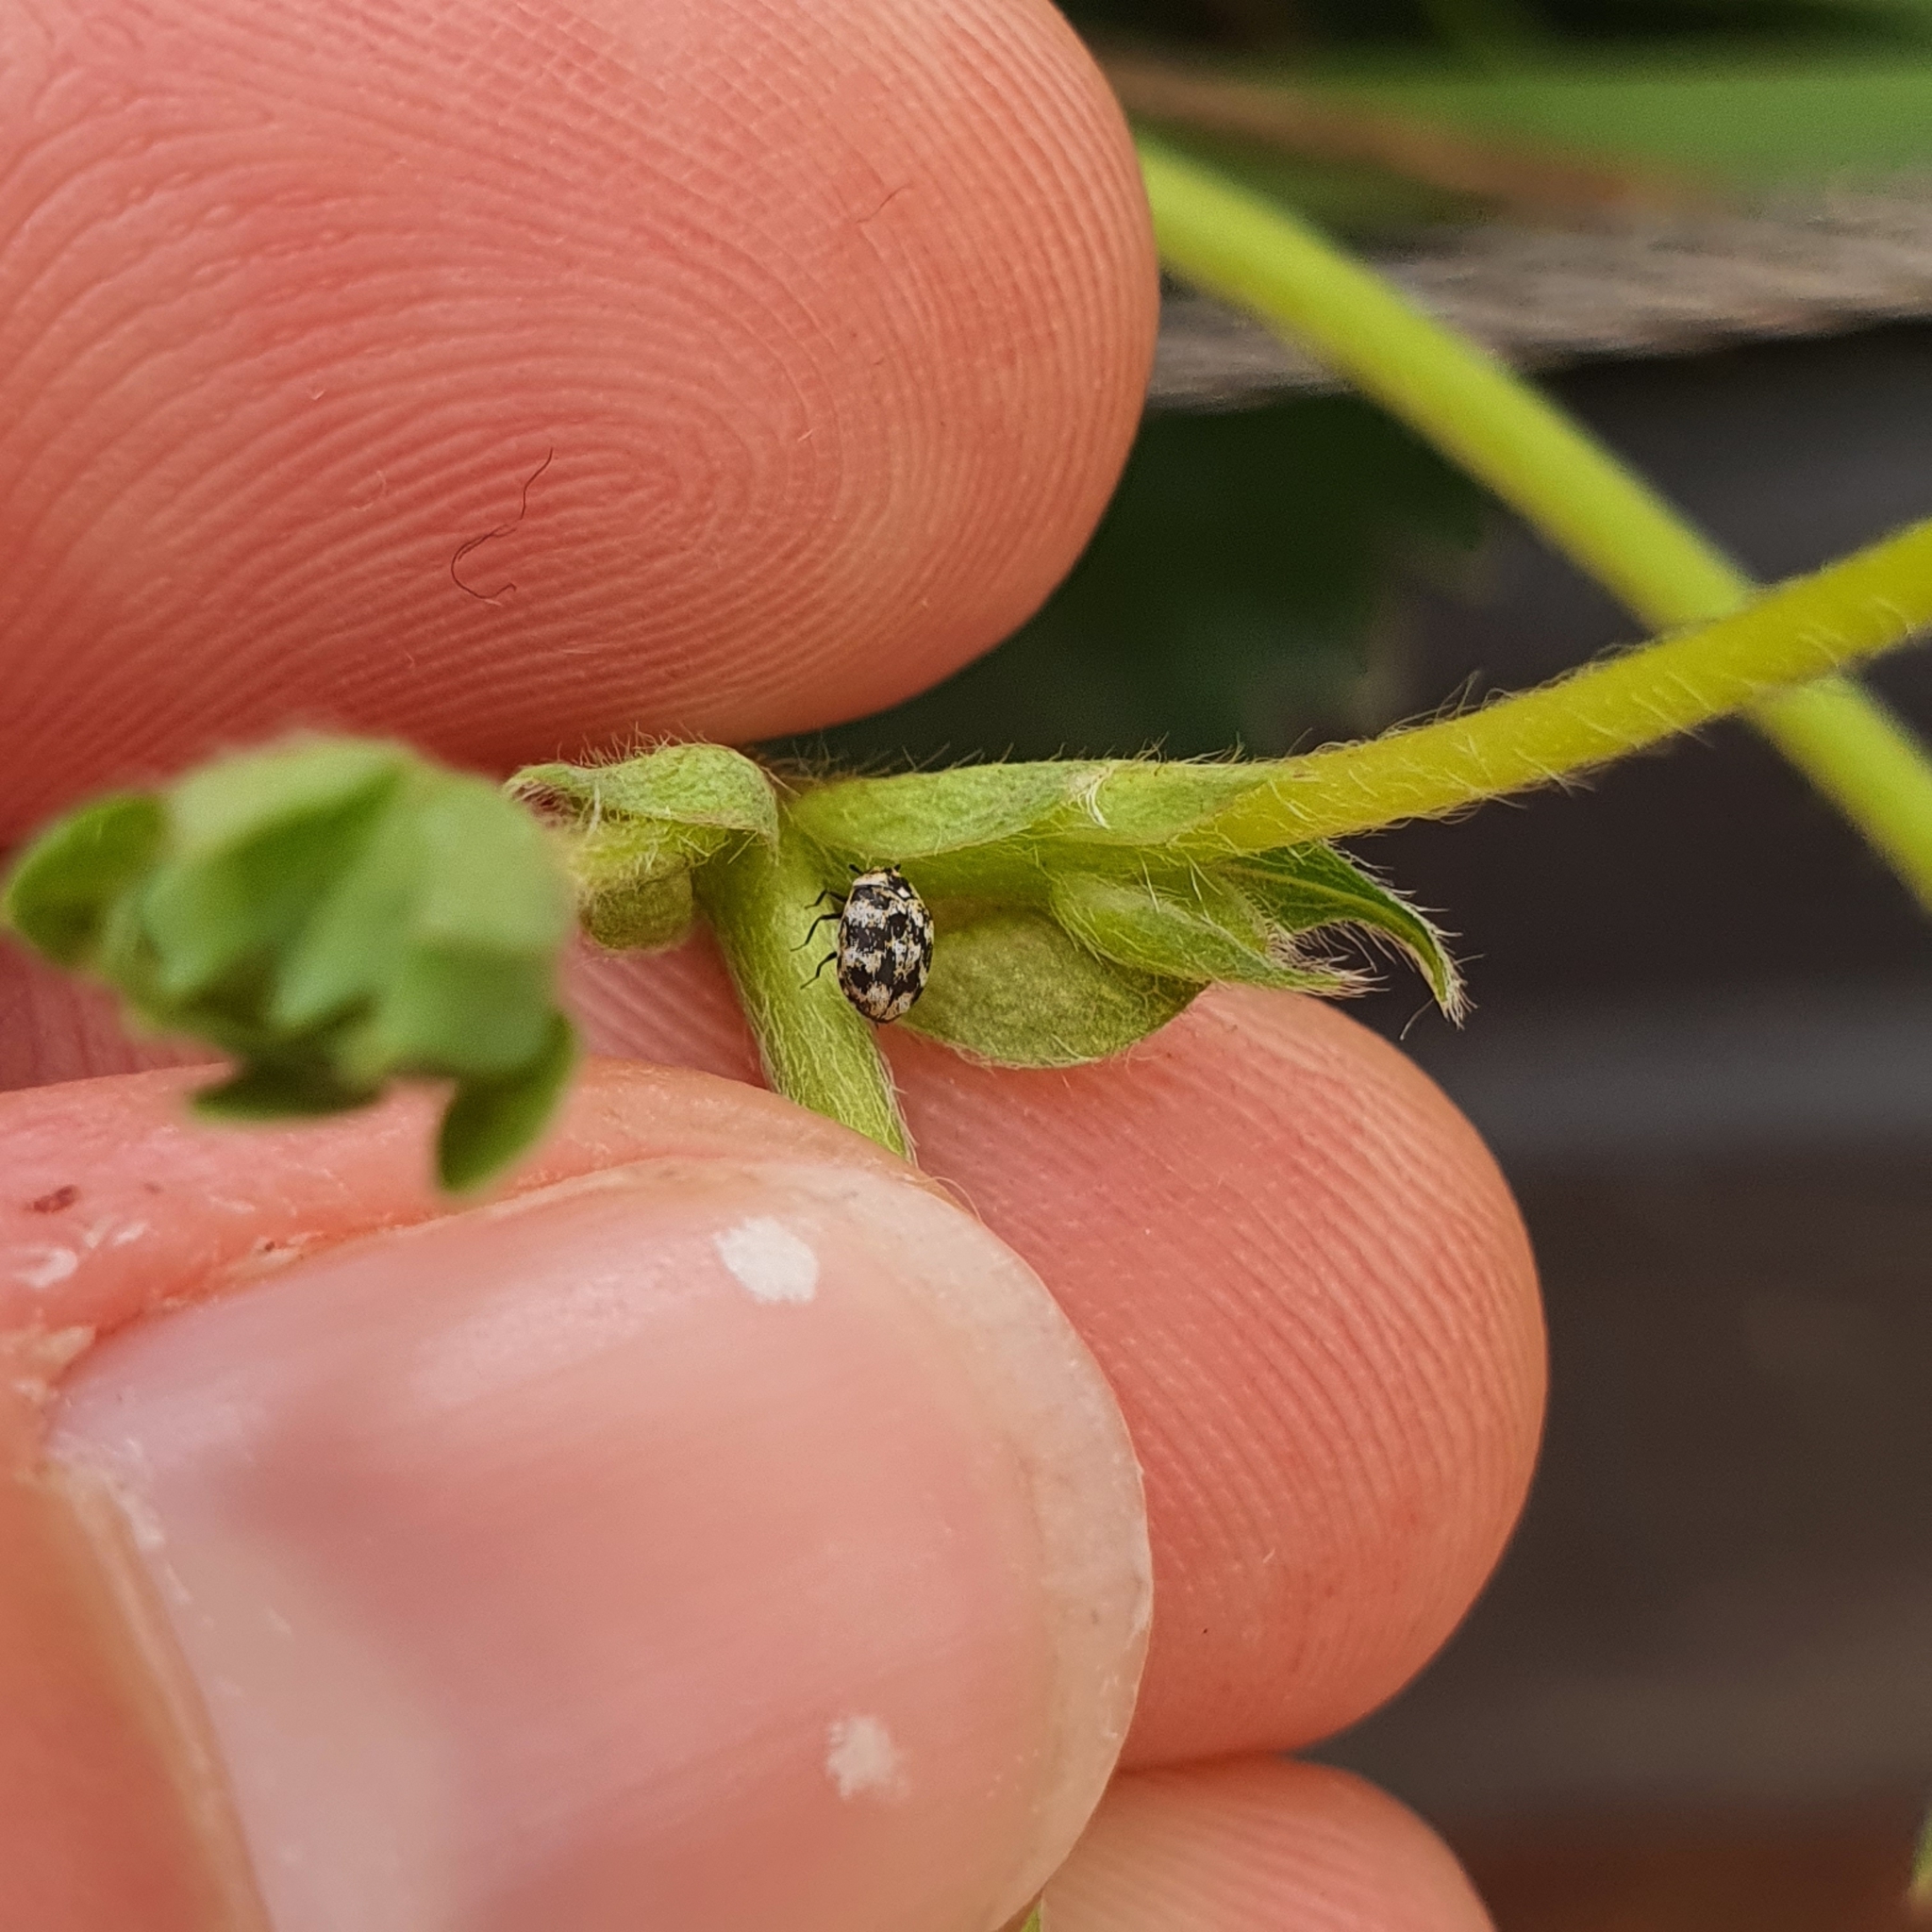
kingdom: Animalia
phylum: Arthropoda
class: Insecta
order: Coleoptera
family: Dermestidae
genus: Anthrenus
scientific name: Anthrenus verbasci
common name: Varied carpet beetle
